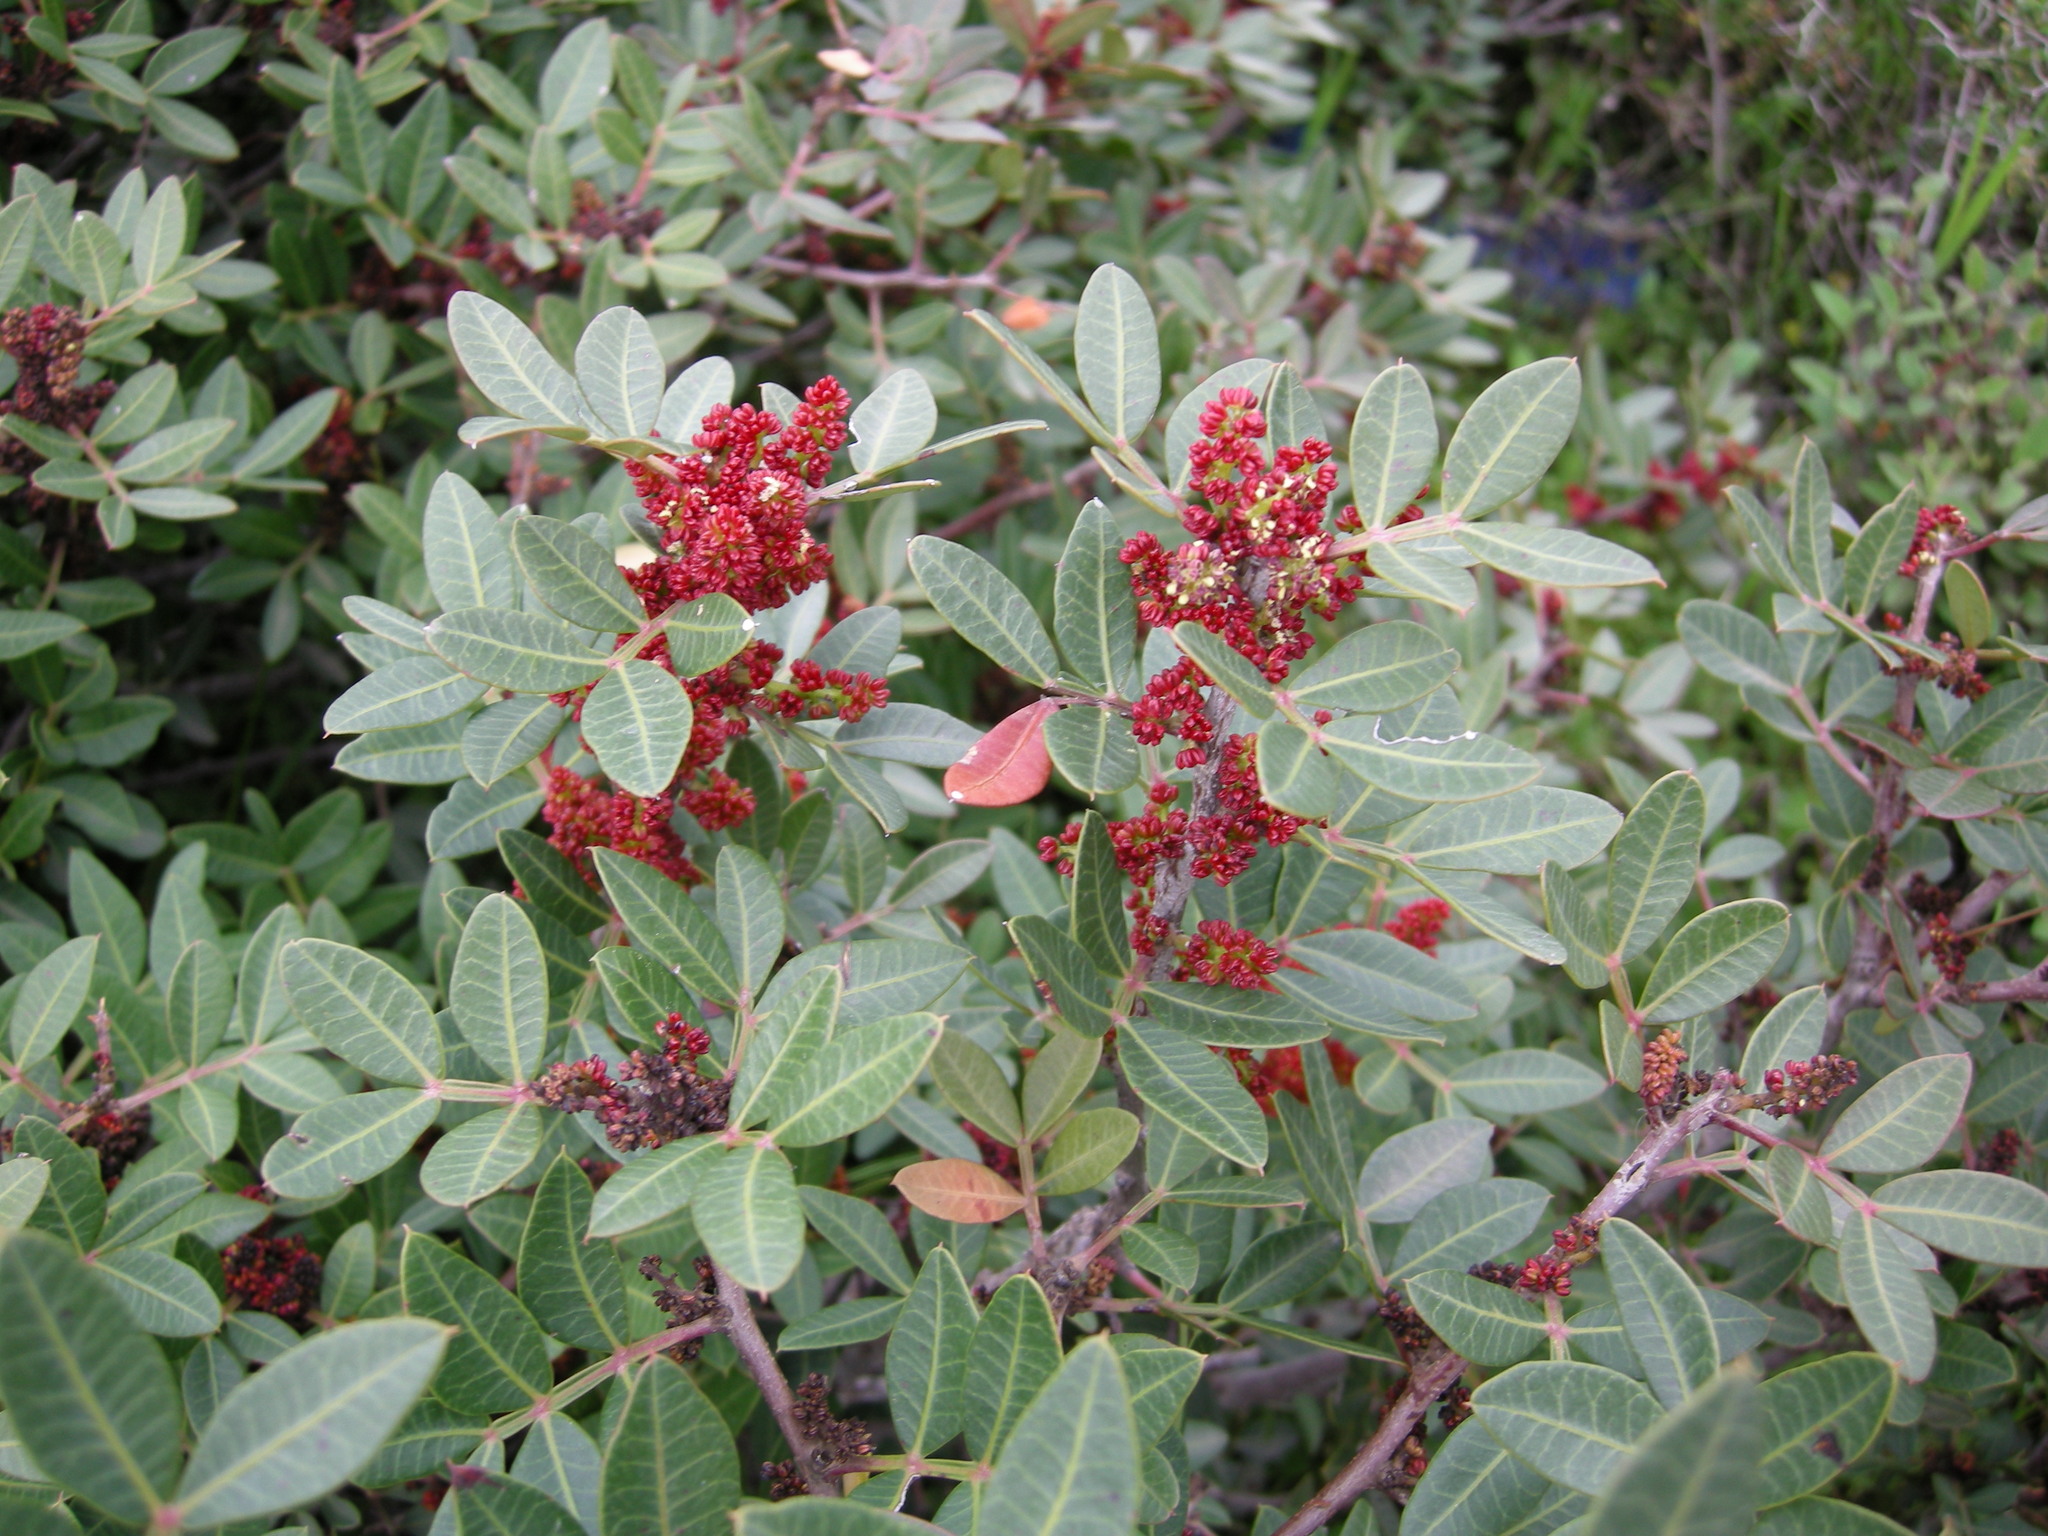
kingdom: Plantae
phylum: Tracheophyta
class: Magnoliopsida
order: Sapindales
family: Anacardiaceae
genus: Pistacia
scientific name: Pistacia lentiscus
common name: Lentisk
